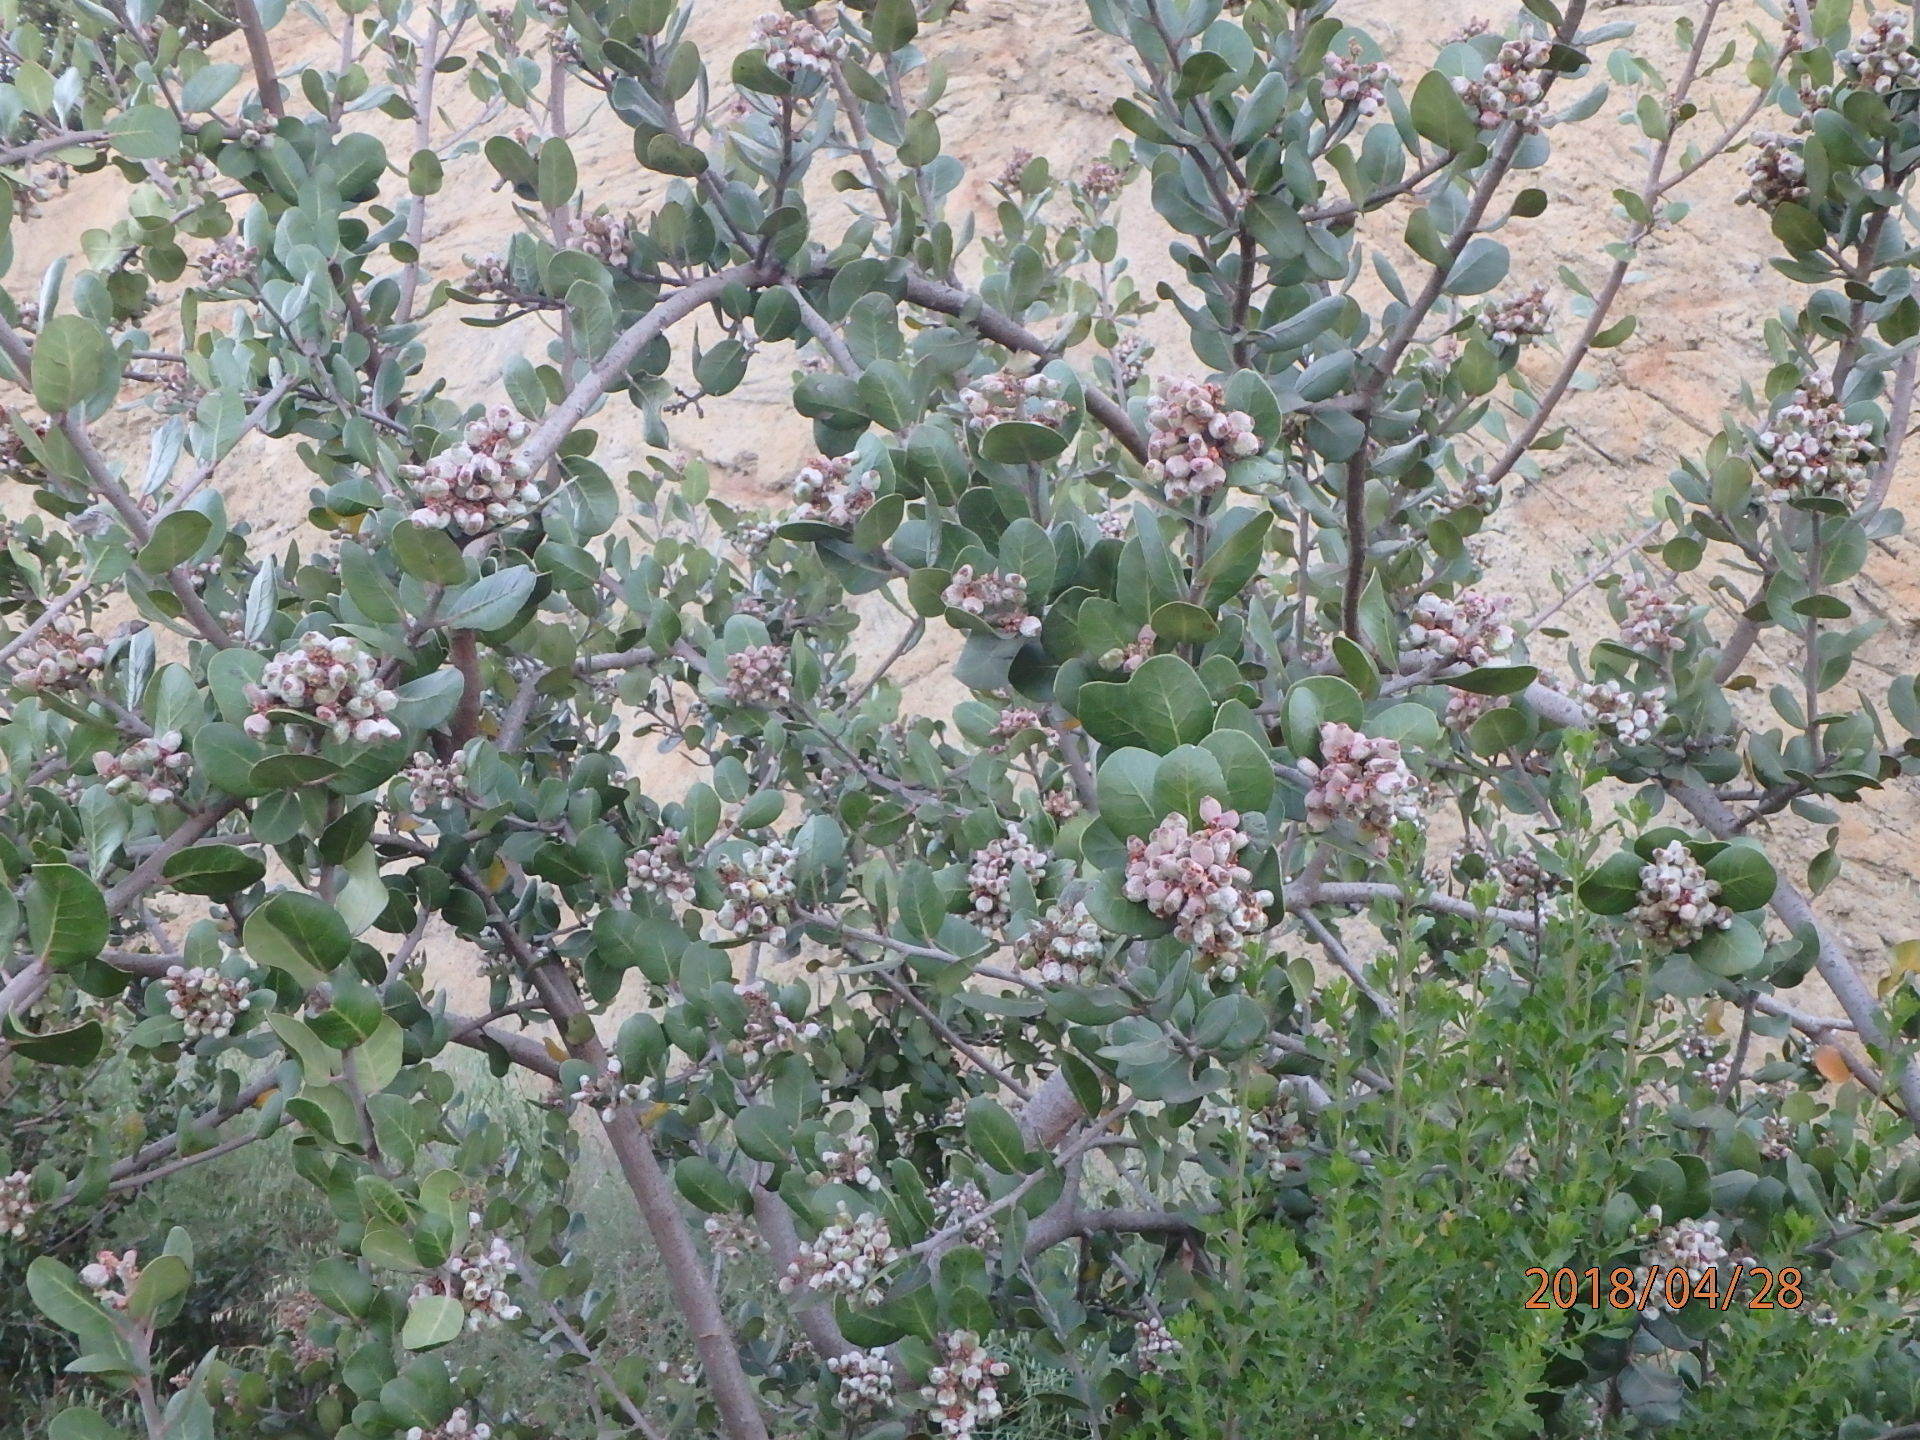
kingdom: Plantae
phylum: Tracheophyta
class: Magnoliopsida
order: Sapindales
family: Anacardiaceae
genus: Rhus
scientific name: Rhus integrifolia
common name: Lemonade sumac
